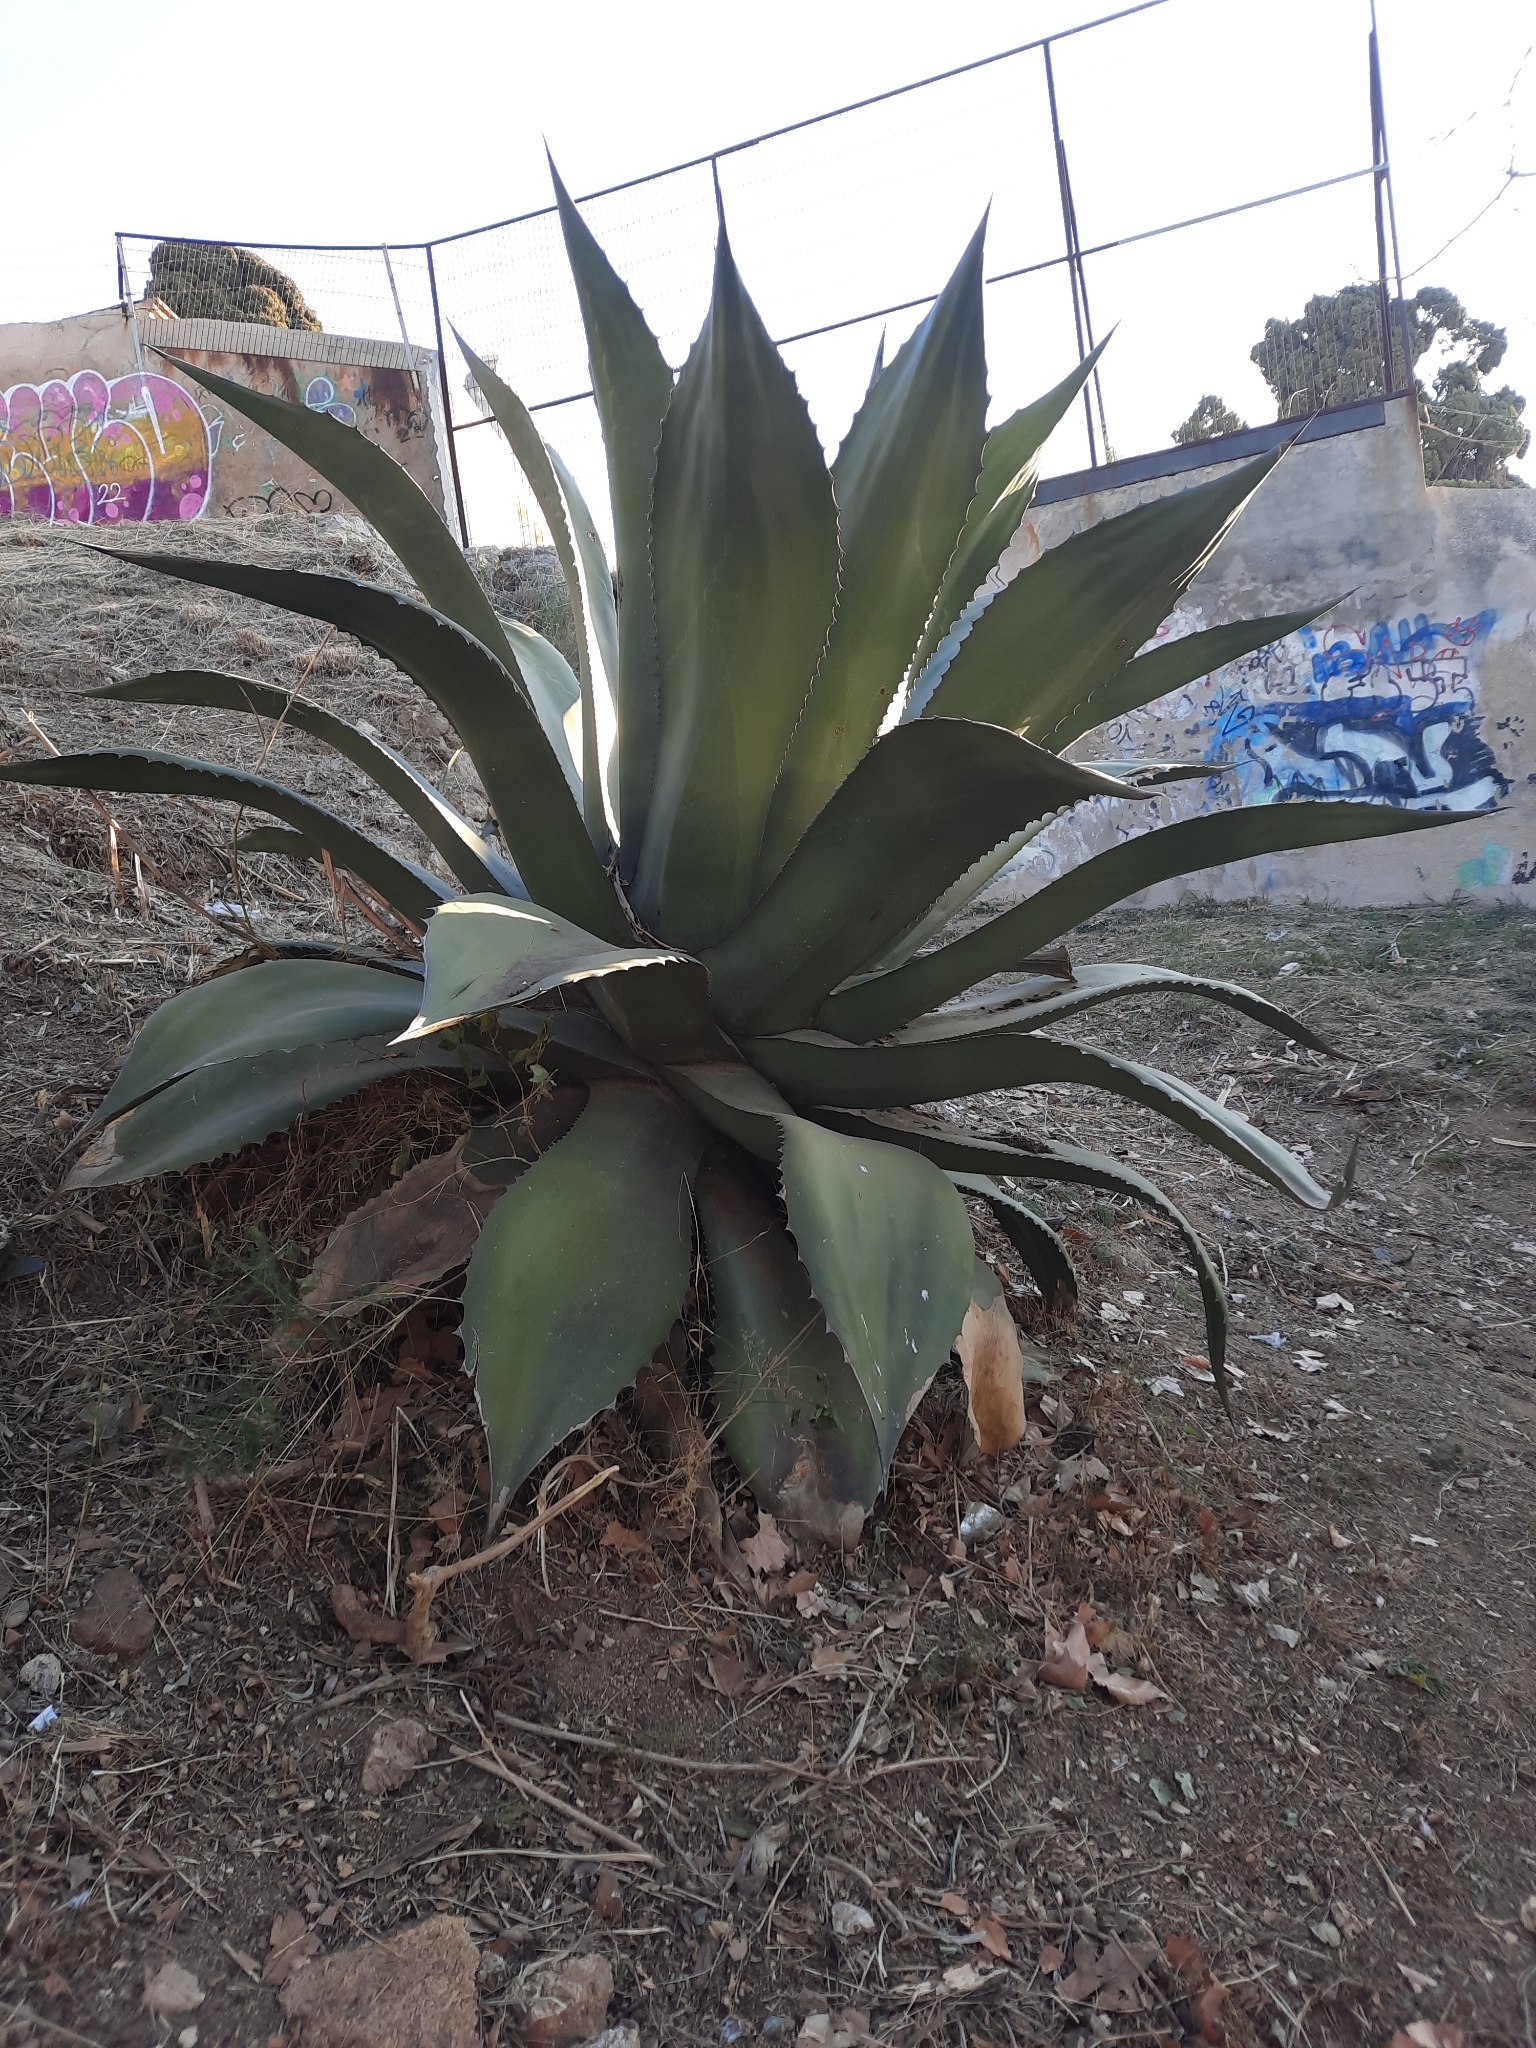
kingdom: Plantae
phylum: Tracheophyta
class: Liliopsida
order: Asparagales
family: Asparagaceae
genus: Agave
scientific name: Agave salmiana
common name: Pulque agave
